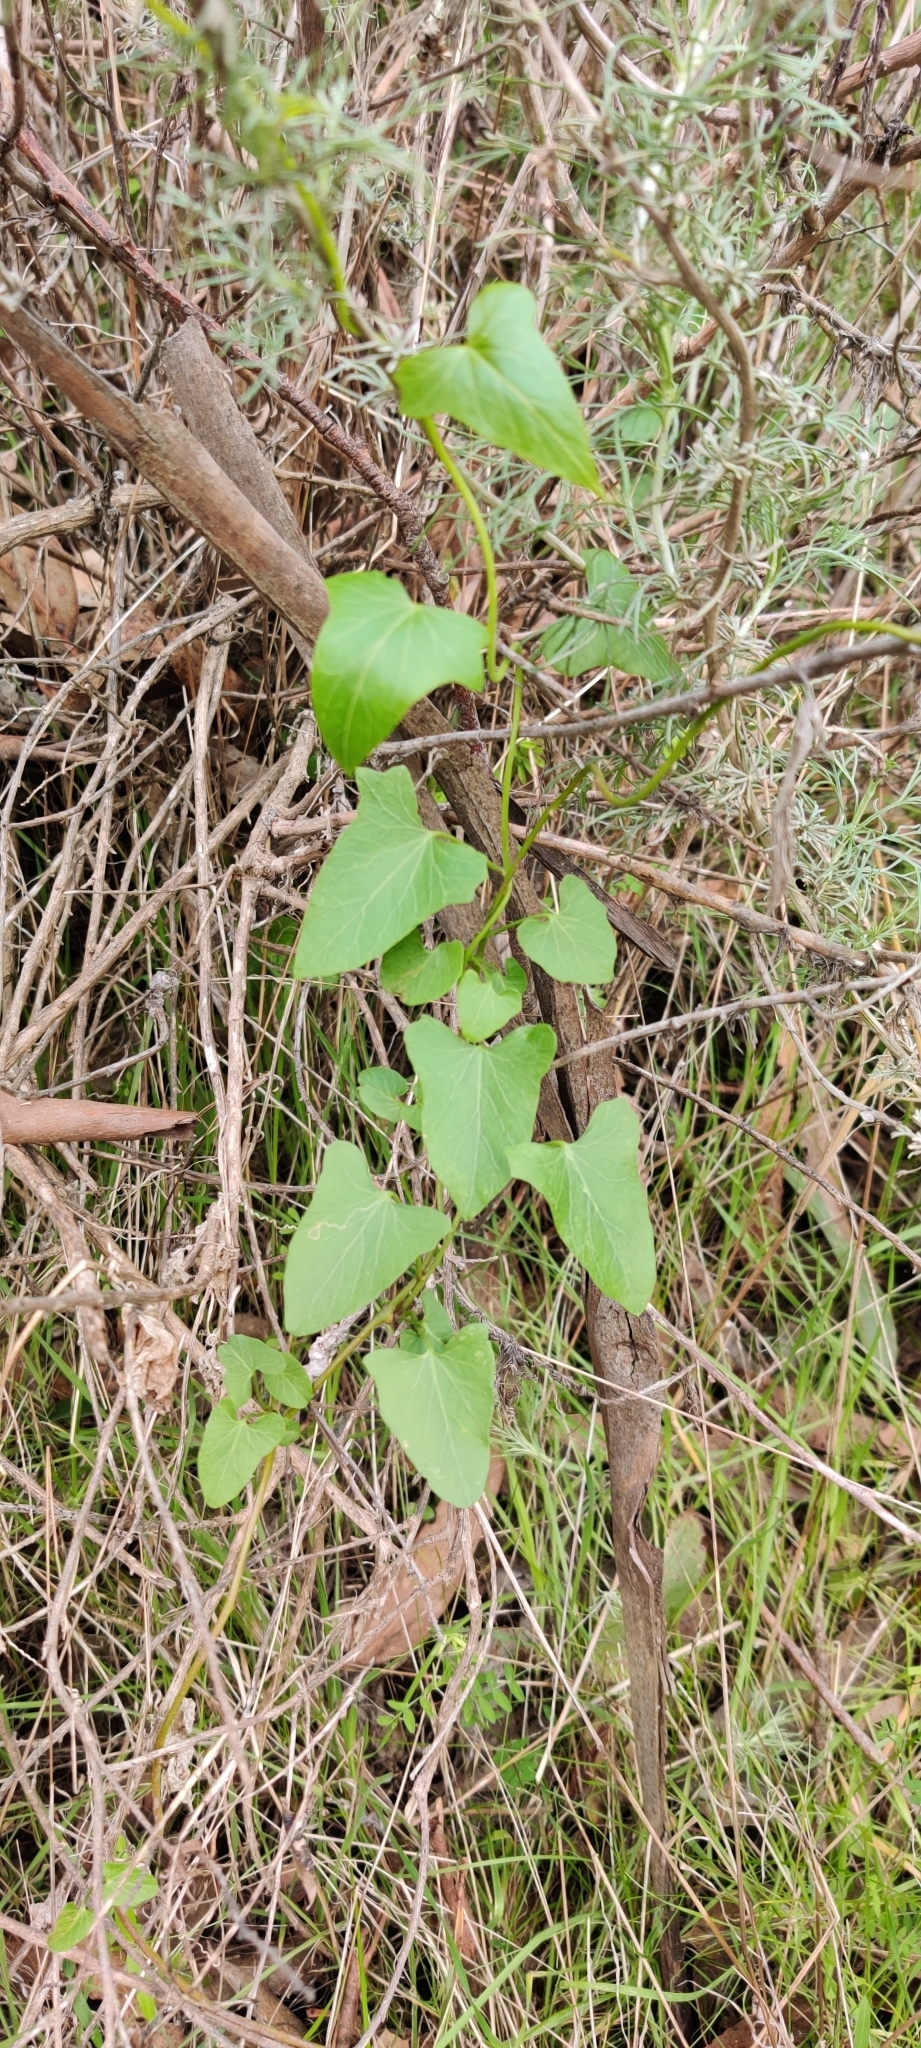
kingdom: Plantae
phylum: Tracheophyta
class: Magnoliopsida
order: Solanales
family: Convolvulaceae
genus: Calystegia
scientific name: Calystegia purpurata
